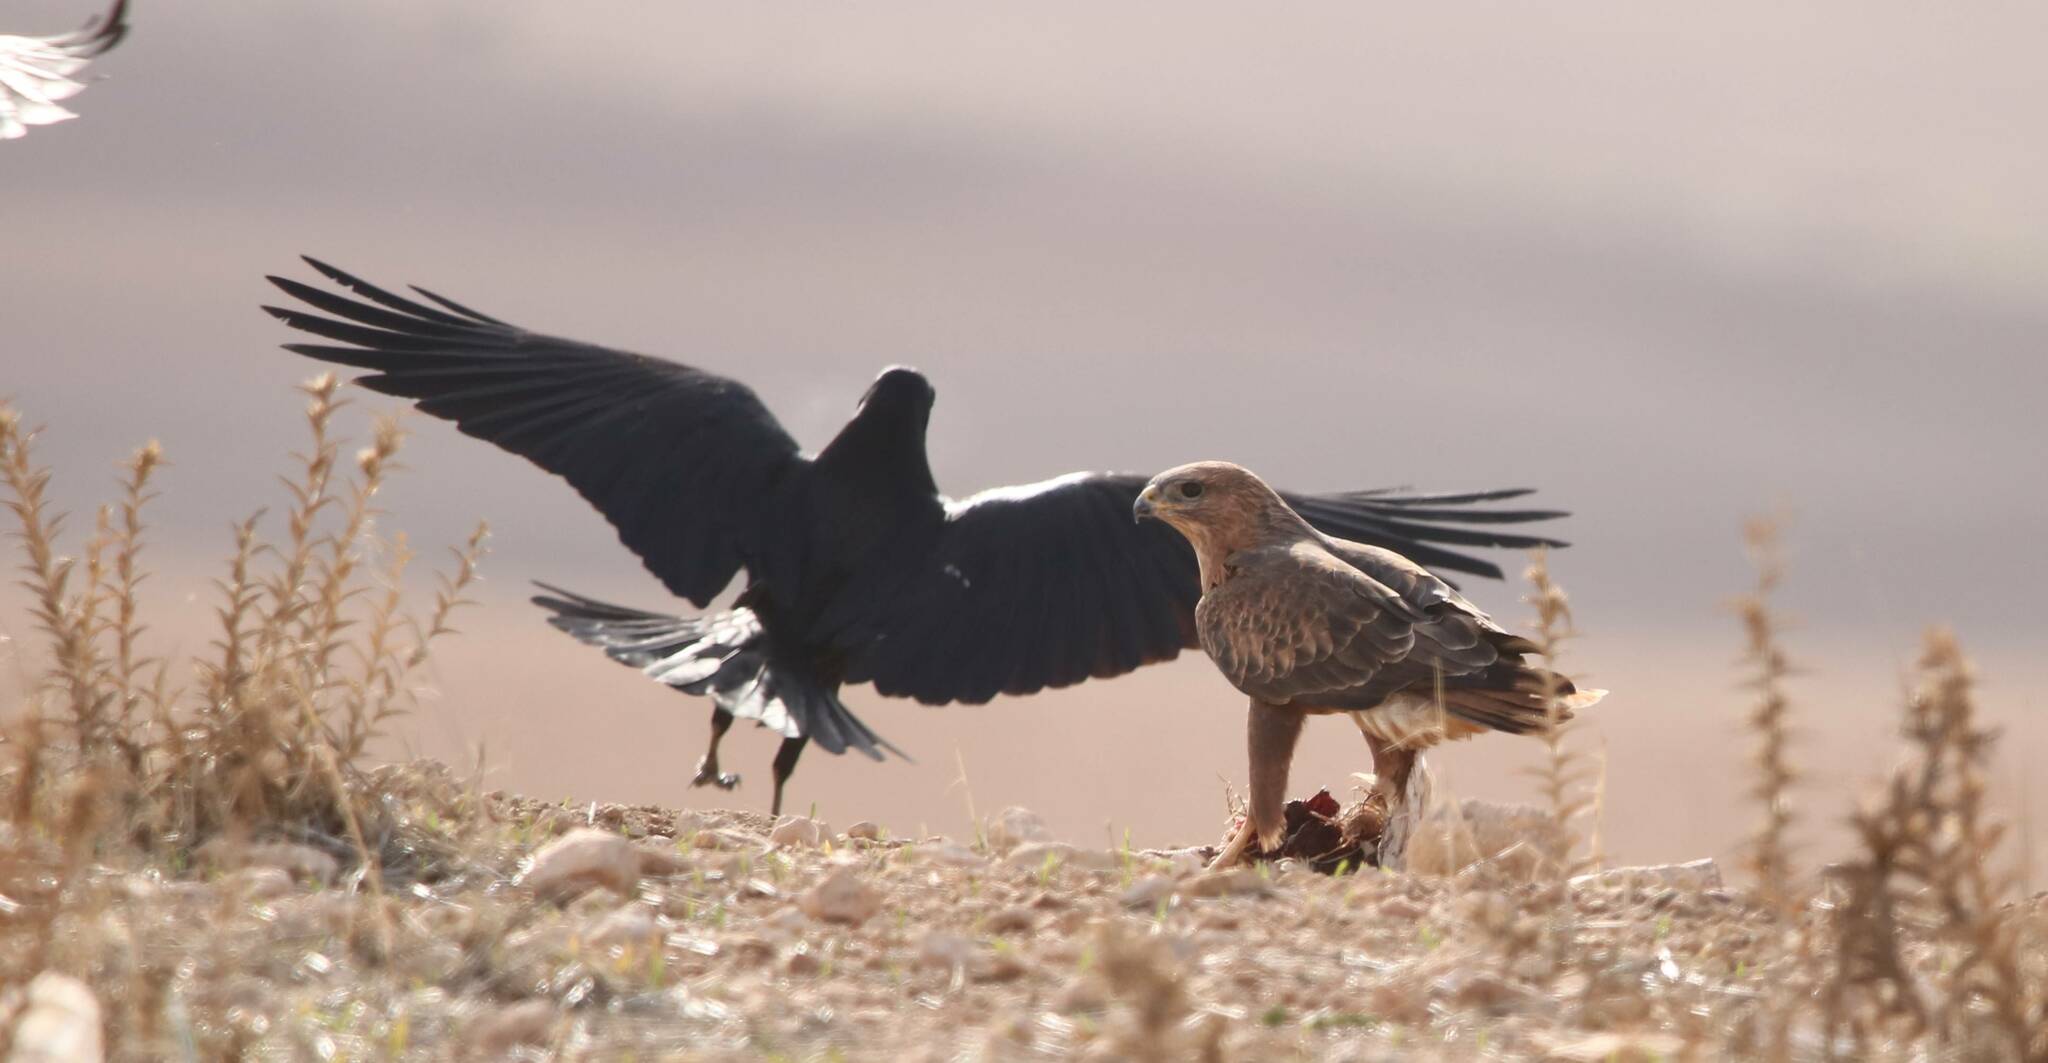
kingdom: Animalia
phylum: Chordata
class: Aves
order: Accipitriformes
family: Accipitridae
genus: Buteo
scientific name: Buteo rufinus
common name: Long-legged buzzard
